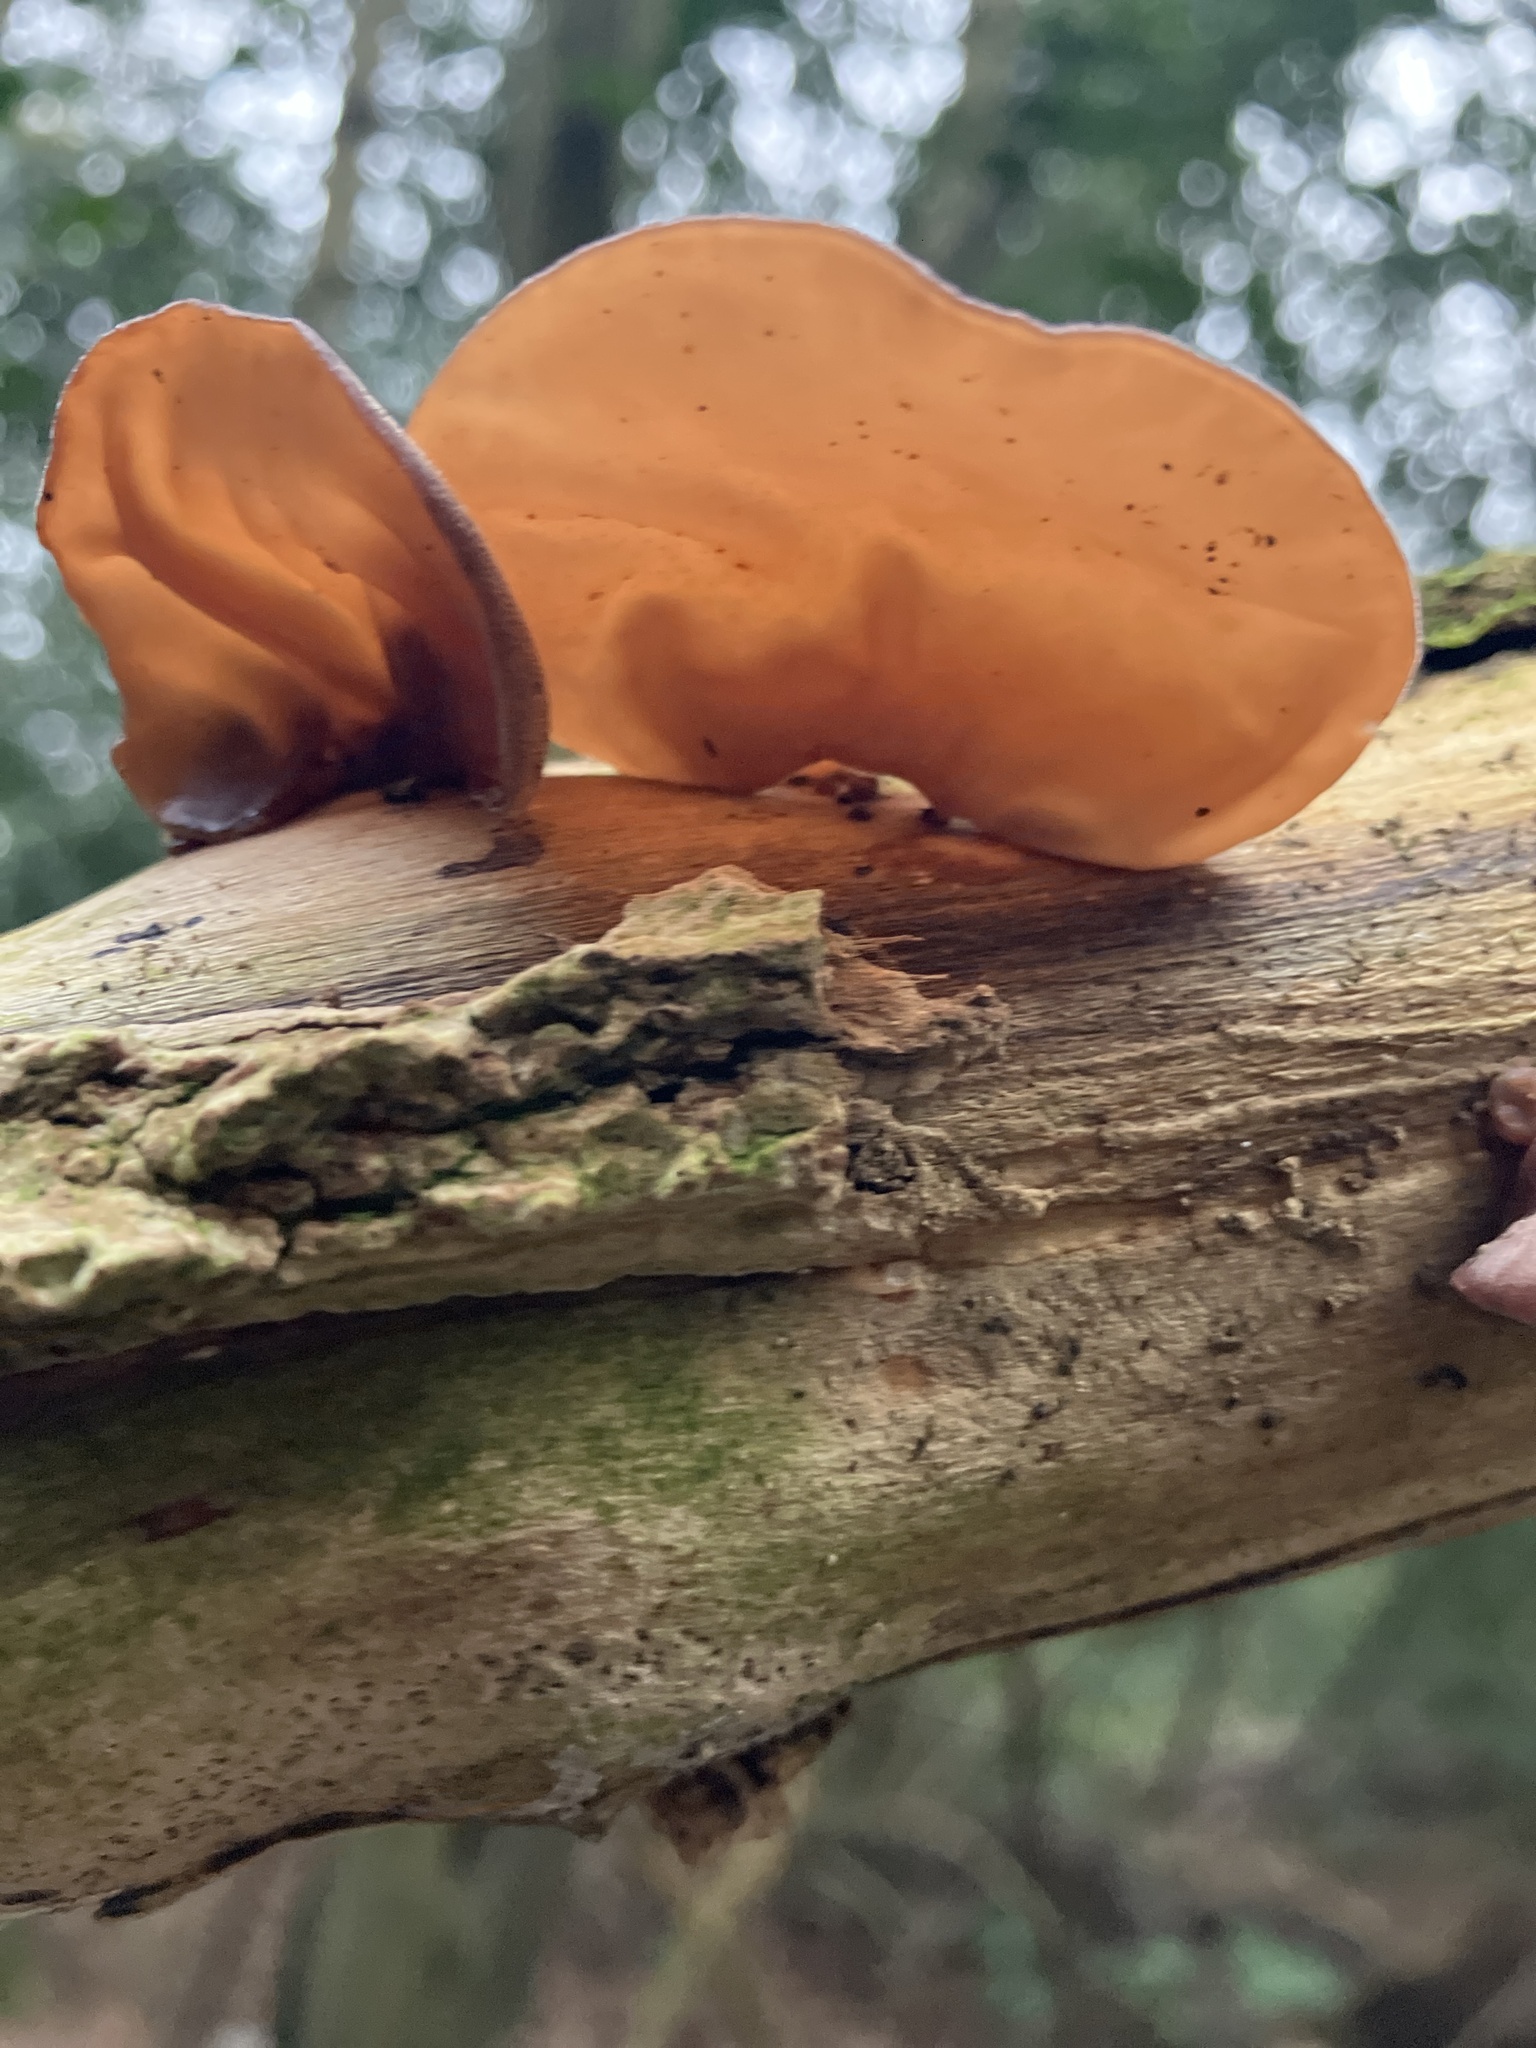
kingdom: Fungi
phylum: Basidiomycota
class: Agaricomycetes
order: Auriculariales
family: Auriculariaceae
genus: Auricularia
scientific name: Auricularia auricula-judae
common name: Jelly ear
